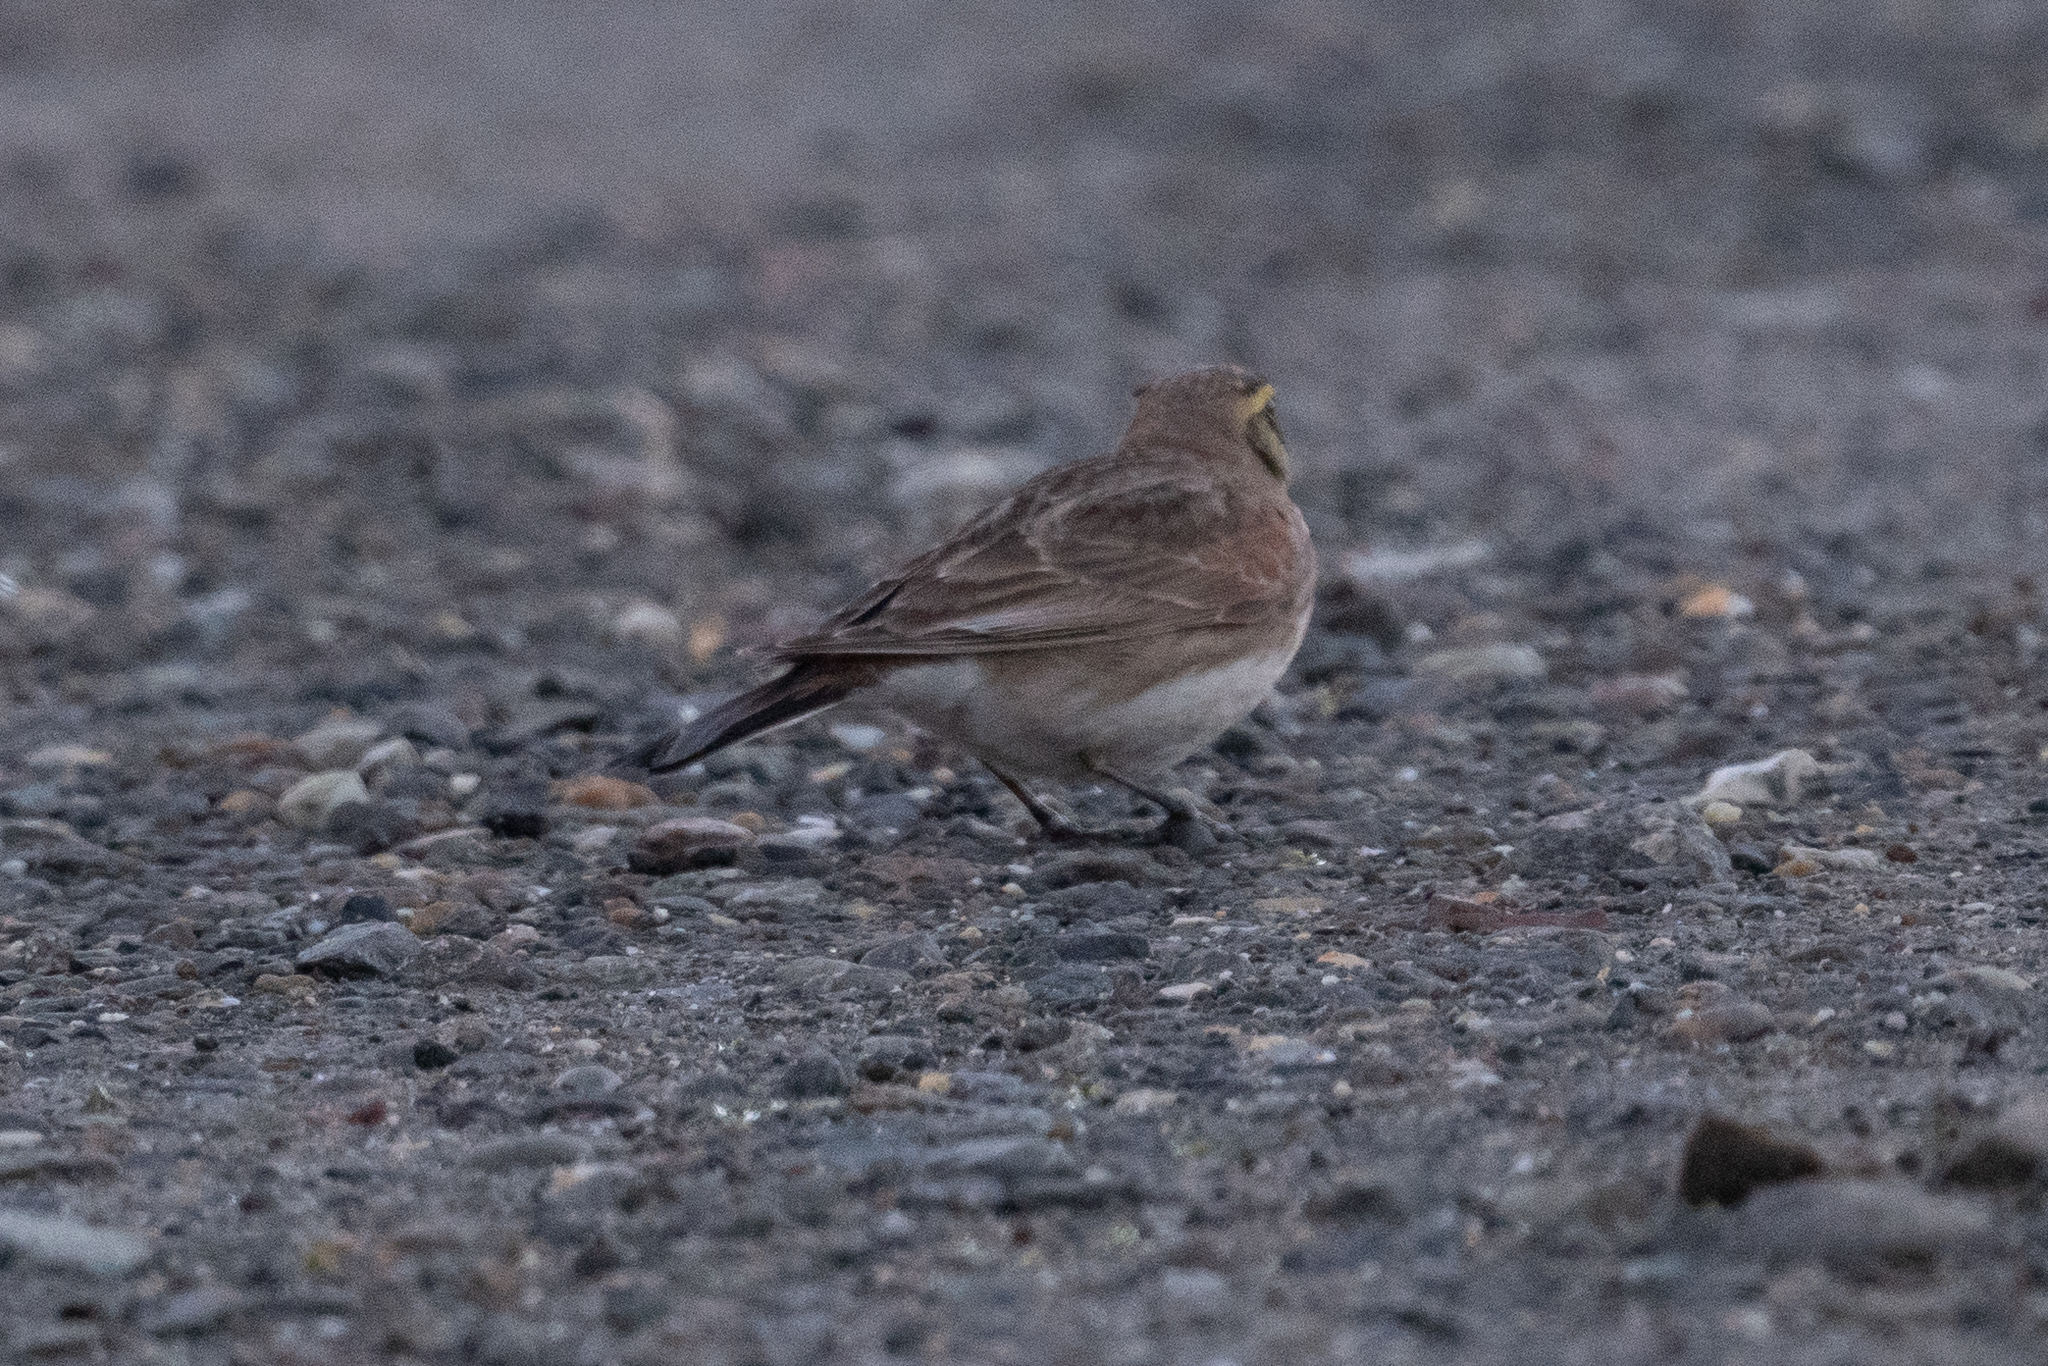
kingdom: Animalia
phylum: Chordata
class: Aves
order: Passeriformes
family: Alaudidae
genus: Eremophila
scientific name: Eremophila alpestris
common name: Horned lark
